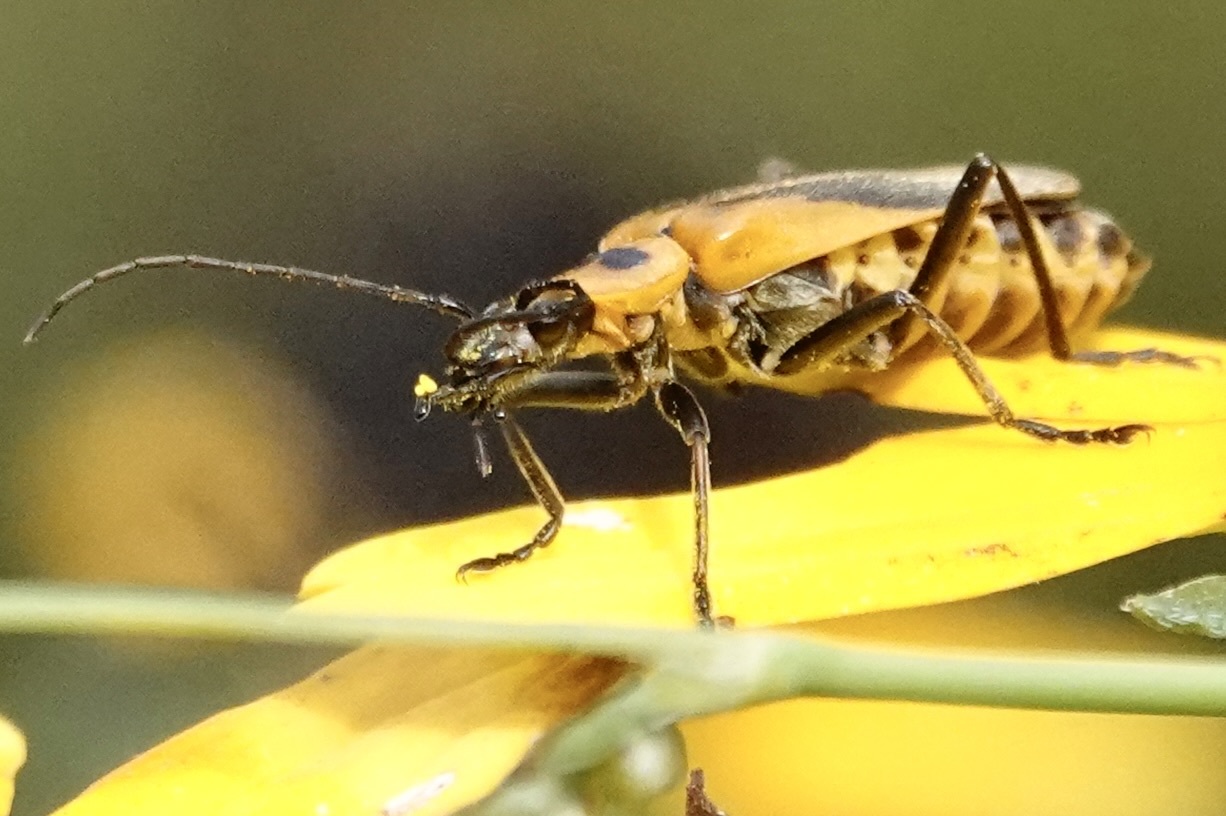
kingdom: Animalia
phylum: Arthropoda
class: Insecta
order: Coleoptera
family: Cantharidae
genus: Chauliognathus
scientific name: Chauliognathus pensylvanicus
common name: Goldenrod soldier beetle
